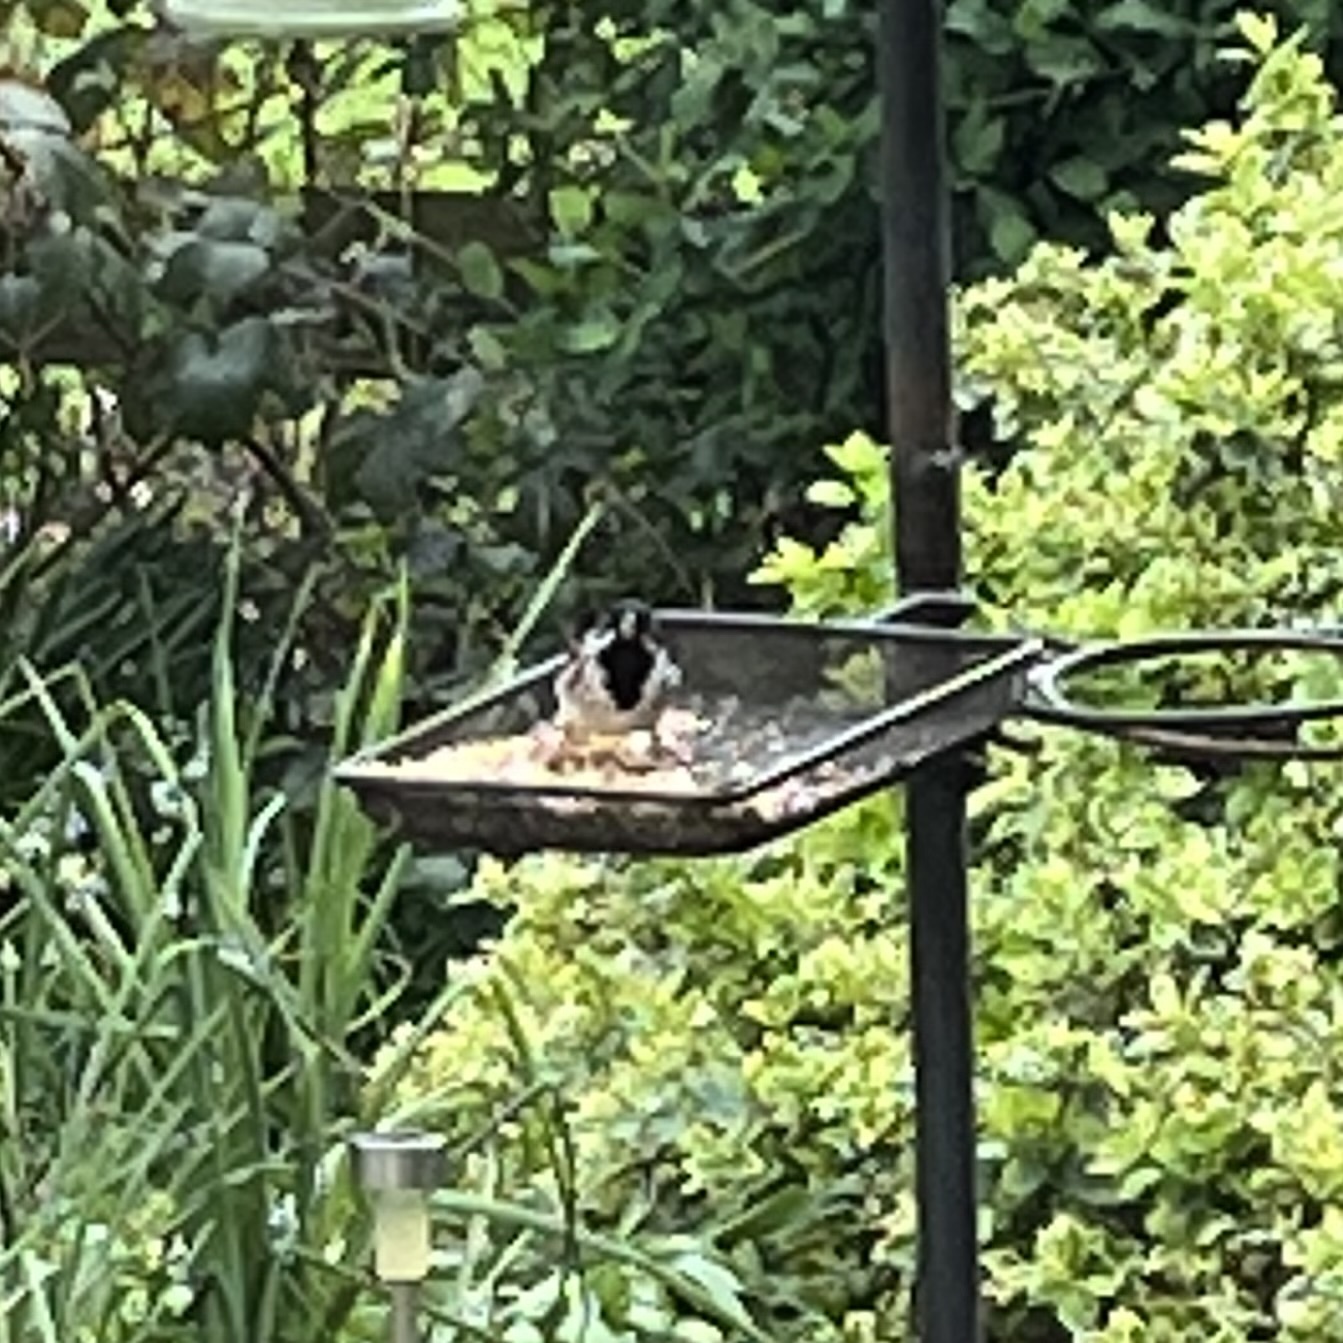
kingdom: Animalia
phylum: Chordata
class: Aves
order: Passeriformes
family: Emberizidae
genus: Emberiza
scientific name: Emberiza schoeniclus
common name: Reed bunting
